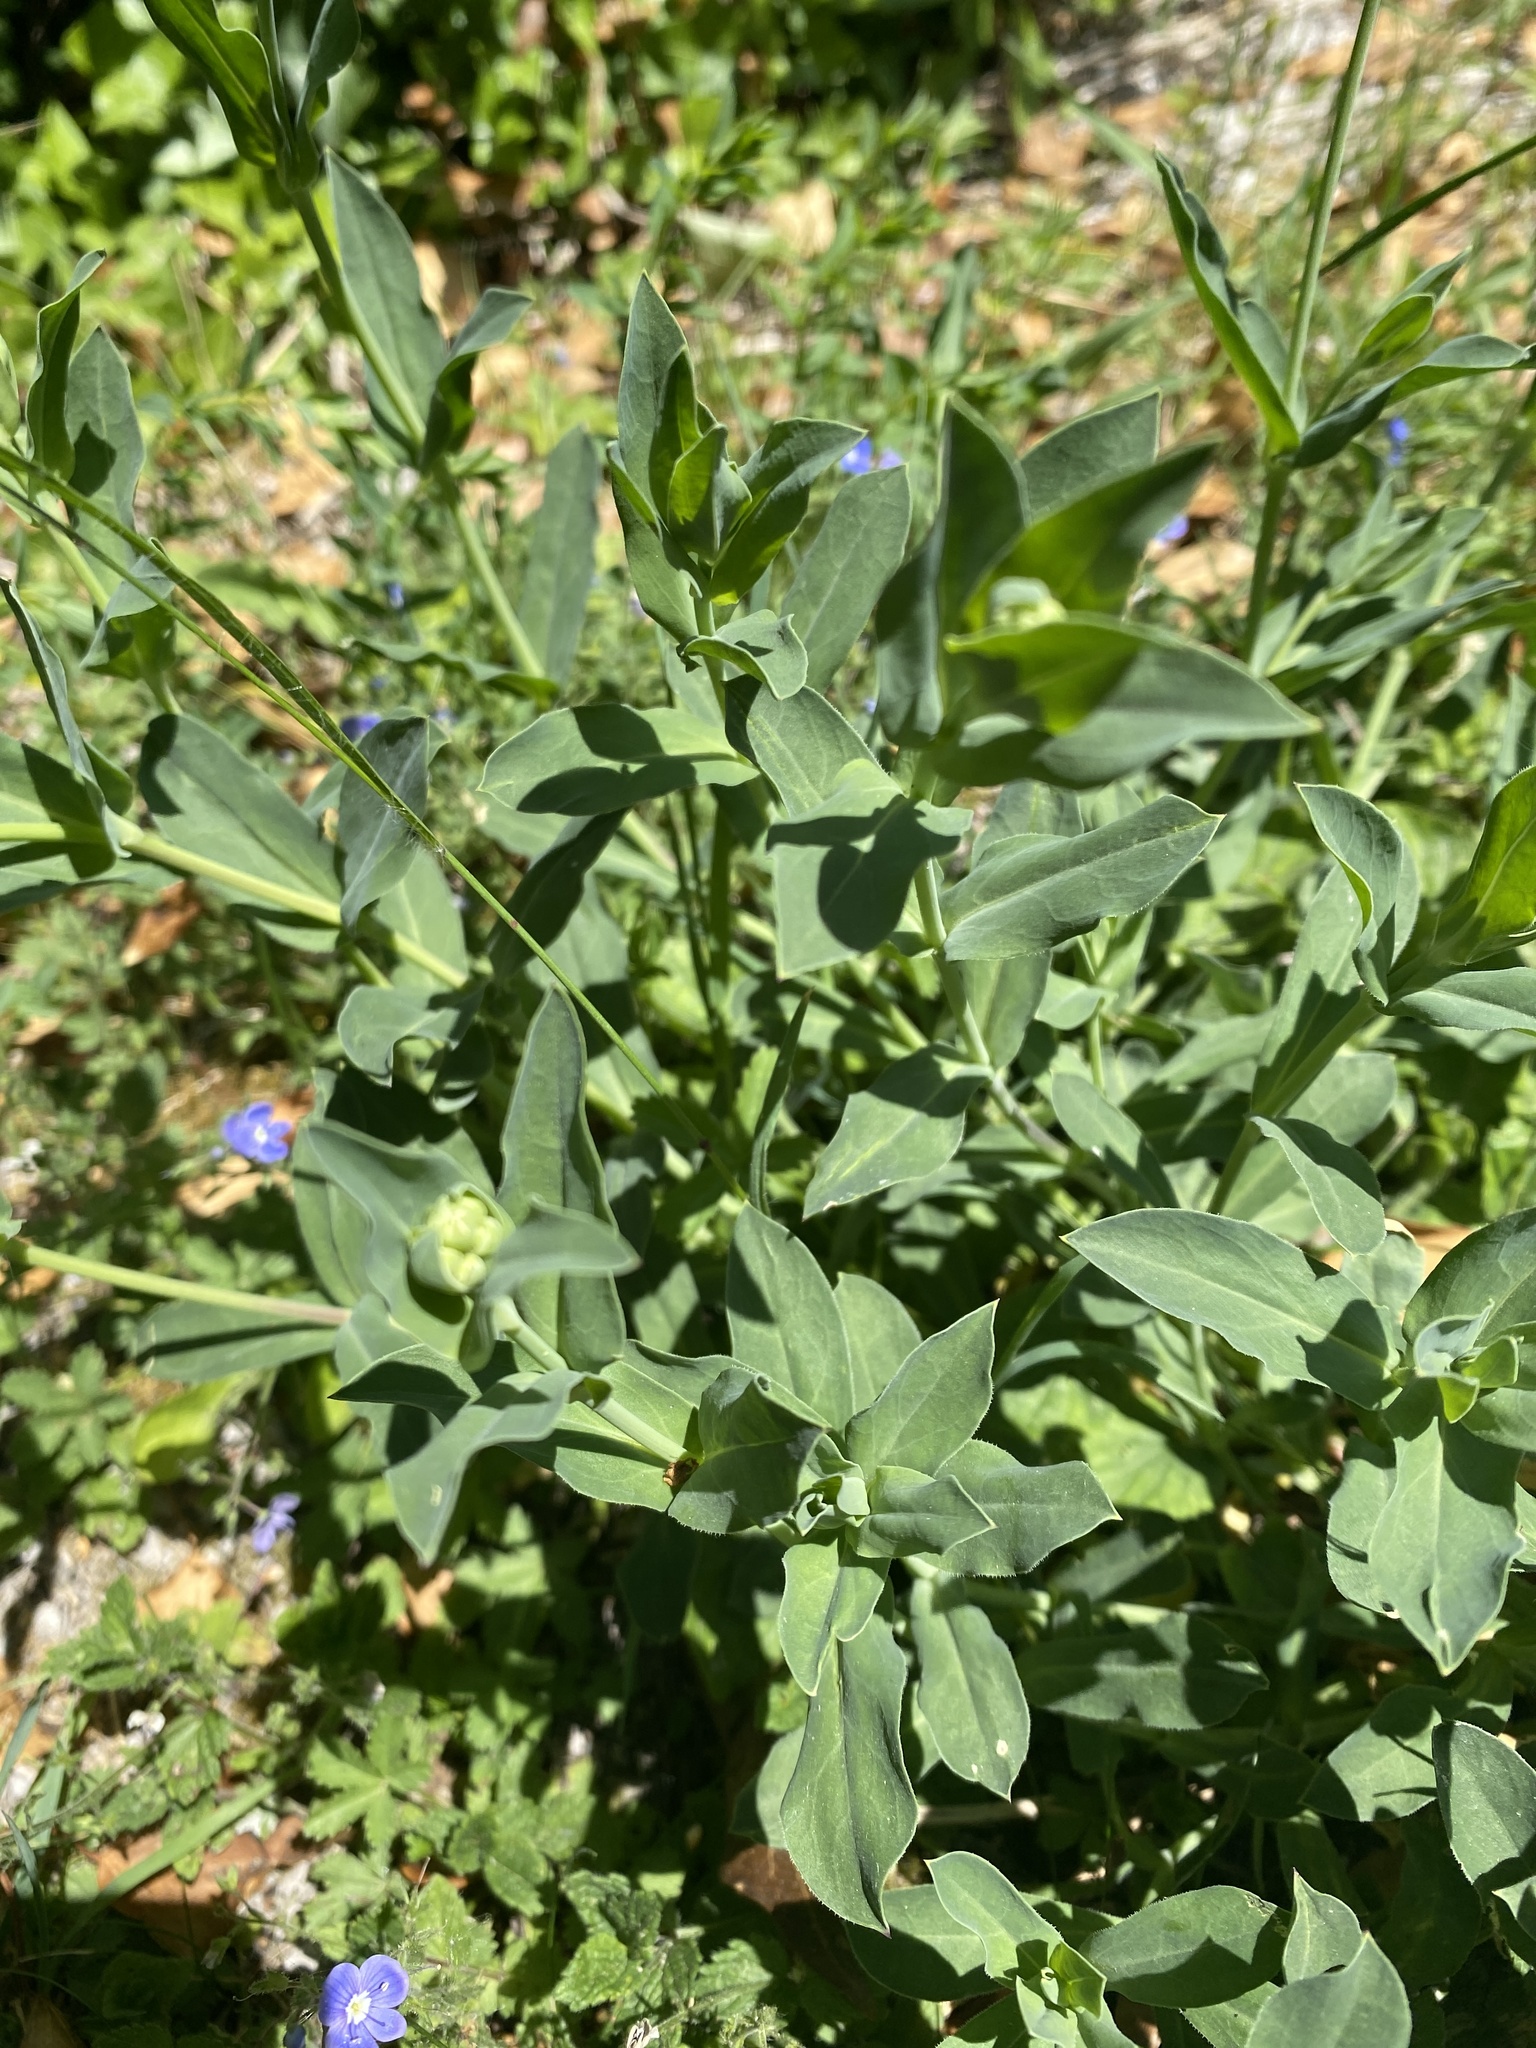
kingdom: Plantae
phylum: Tracheophyta
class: Magnoliopsida
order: Caryophyllales
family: Caryophyllaceae
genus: Silene
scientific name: Silene vulgaris
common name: Bladder campion
